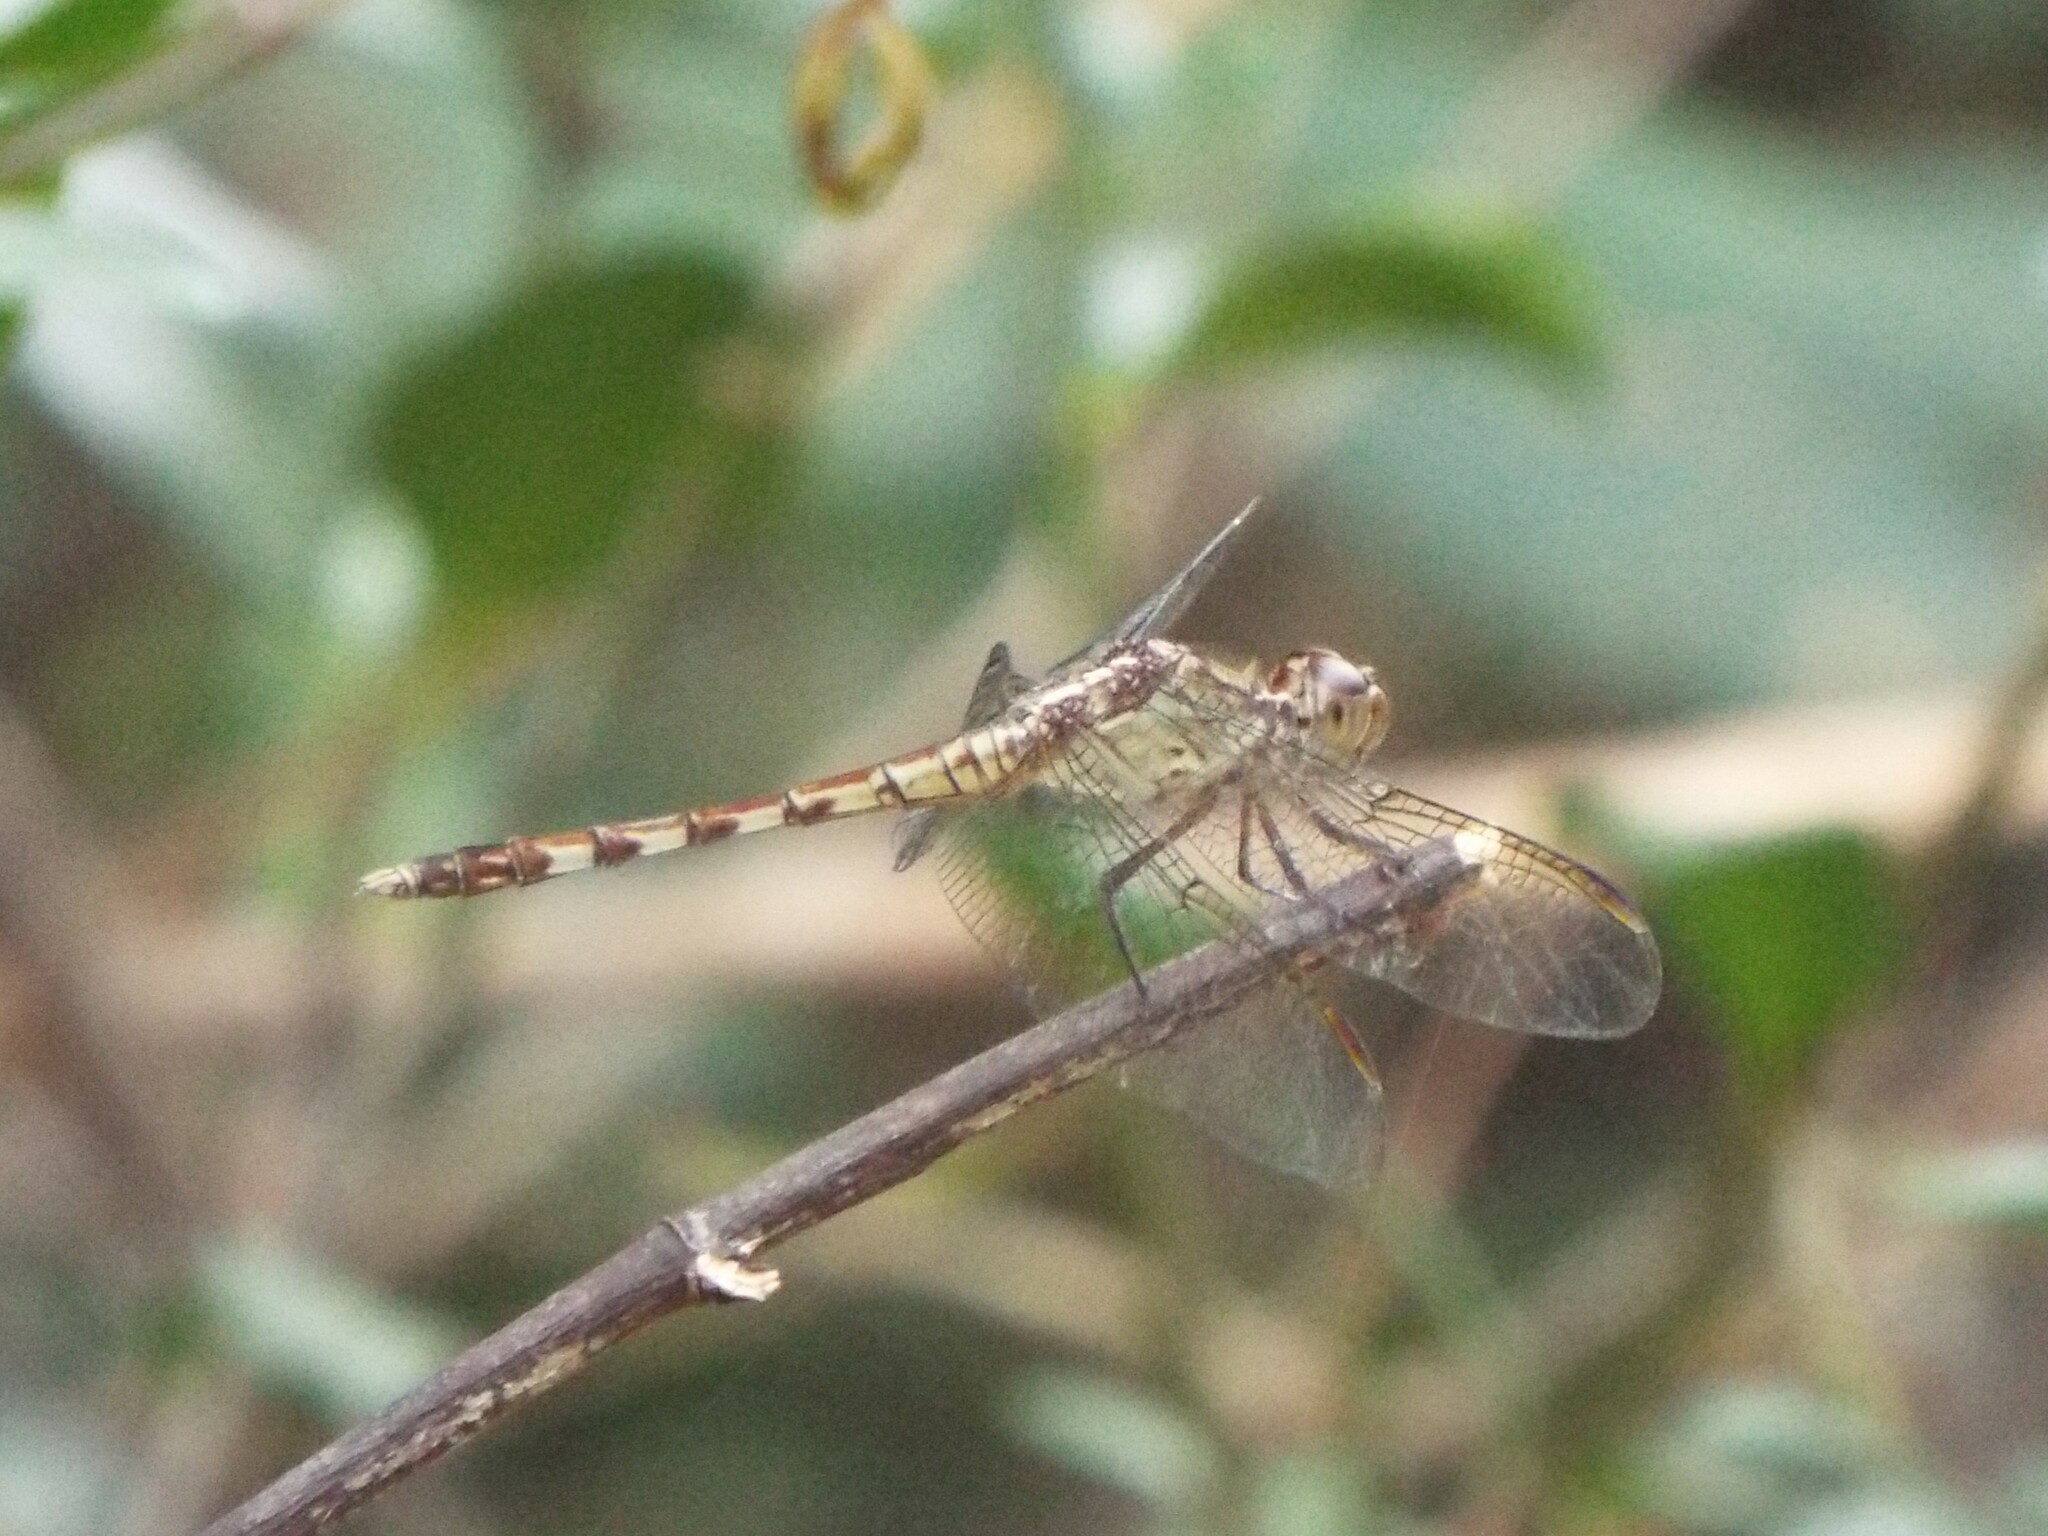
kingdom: Animalia
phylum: Arthropoda
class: Insecta
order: Odonata
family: Libellulidae
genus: Erythrodiplax
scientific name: Erythrodiplax umbrata
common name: Band-winged dragonlet
